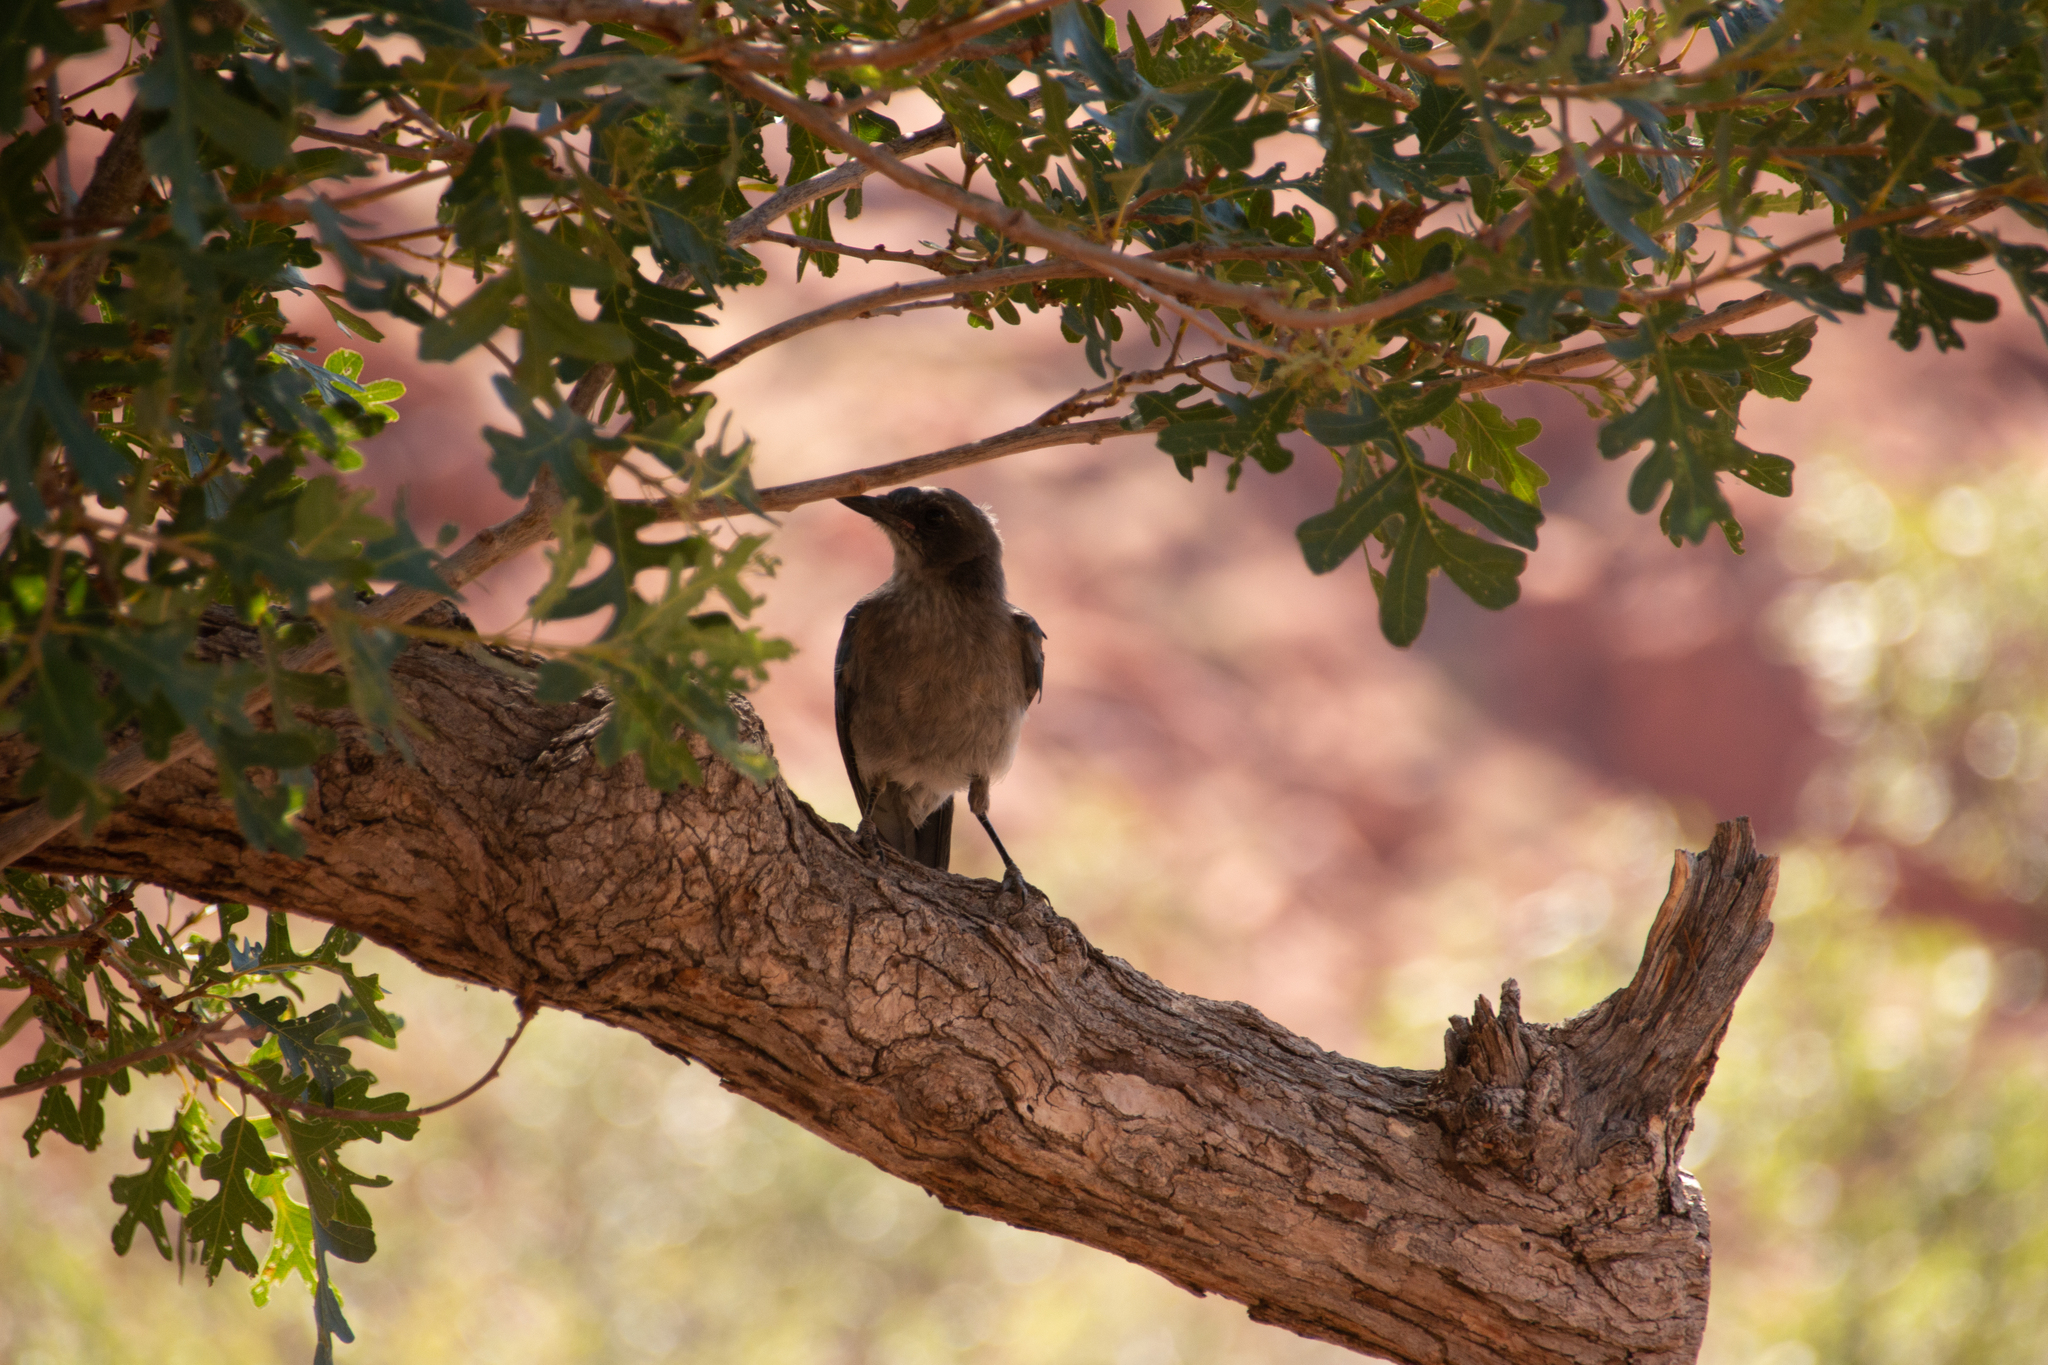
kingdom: Animalia
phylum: Chordata
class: Aves
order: Passeriformes
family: Corvidae
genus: Aphelocoma
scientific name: Aphelocoma woodhouseii
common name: Woodhouse's scrub-jay
